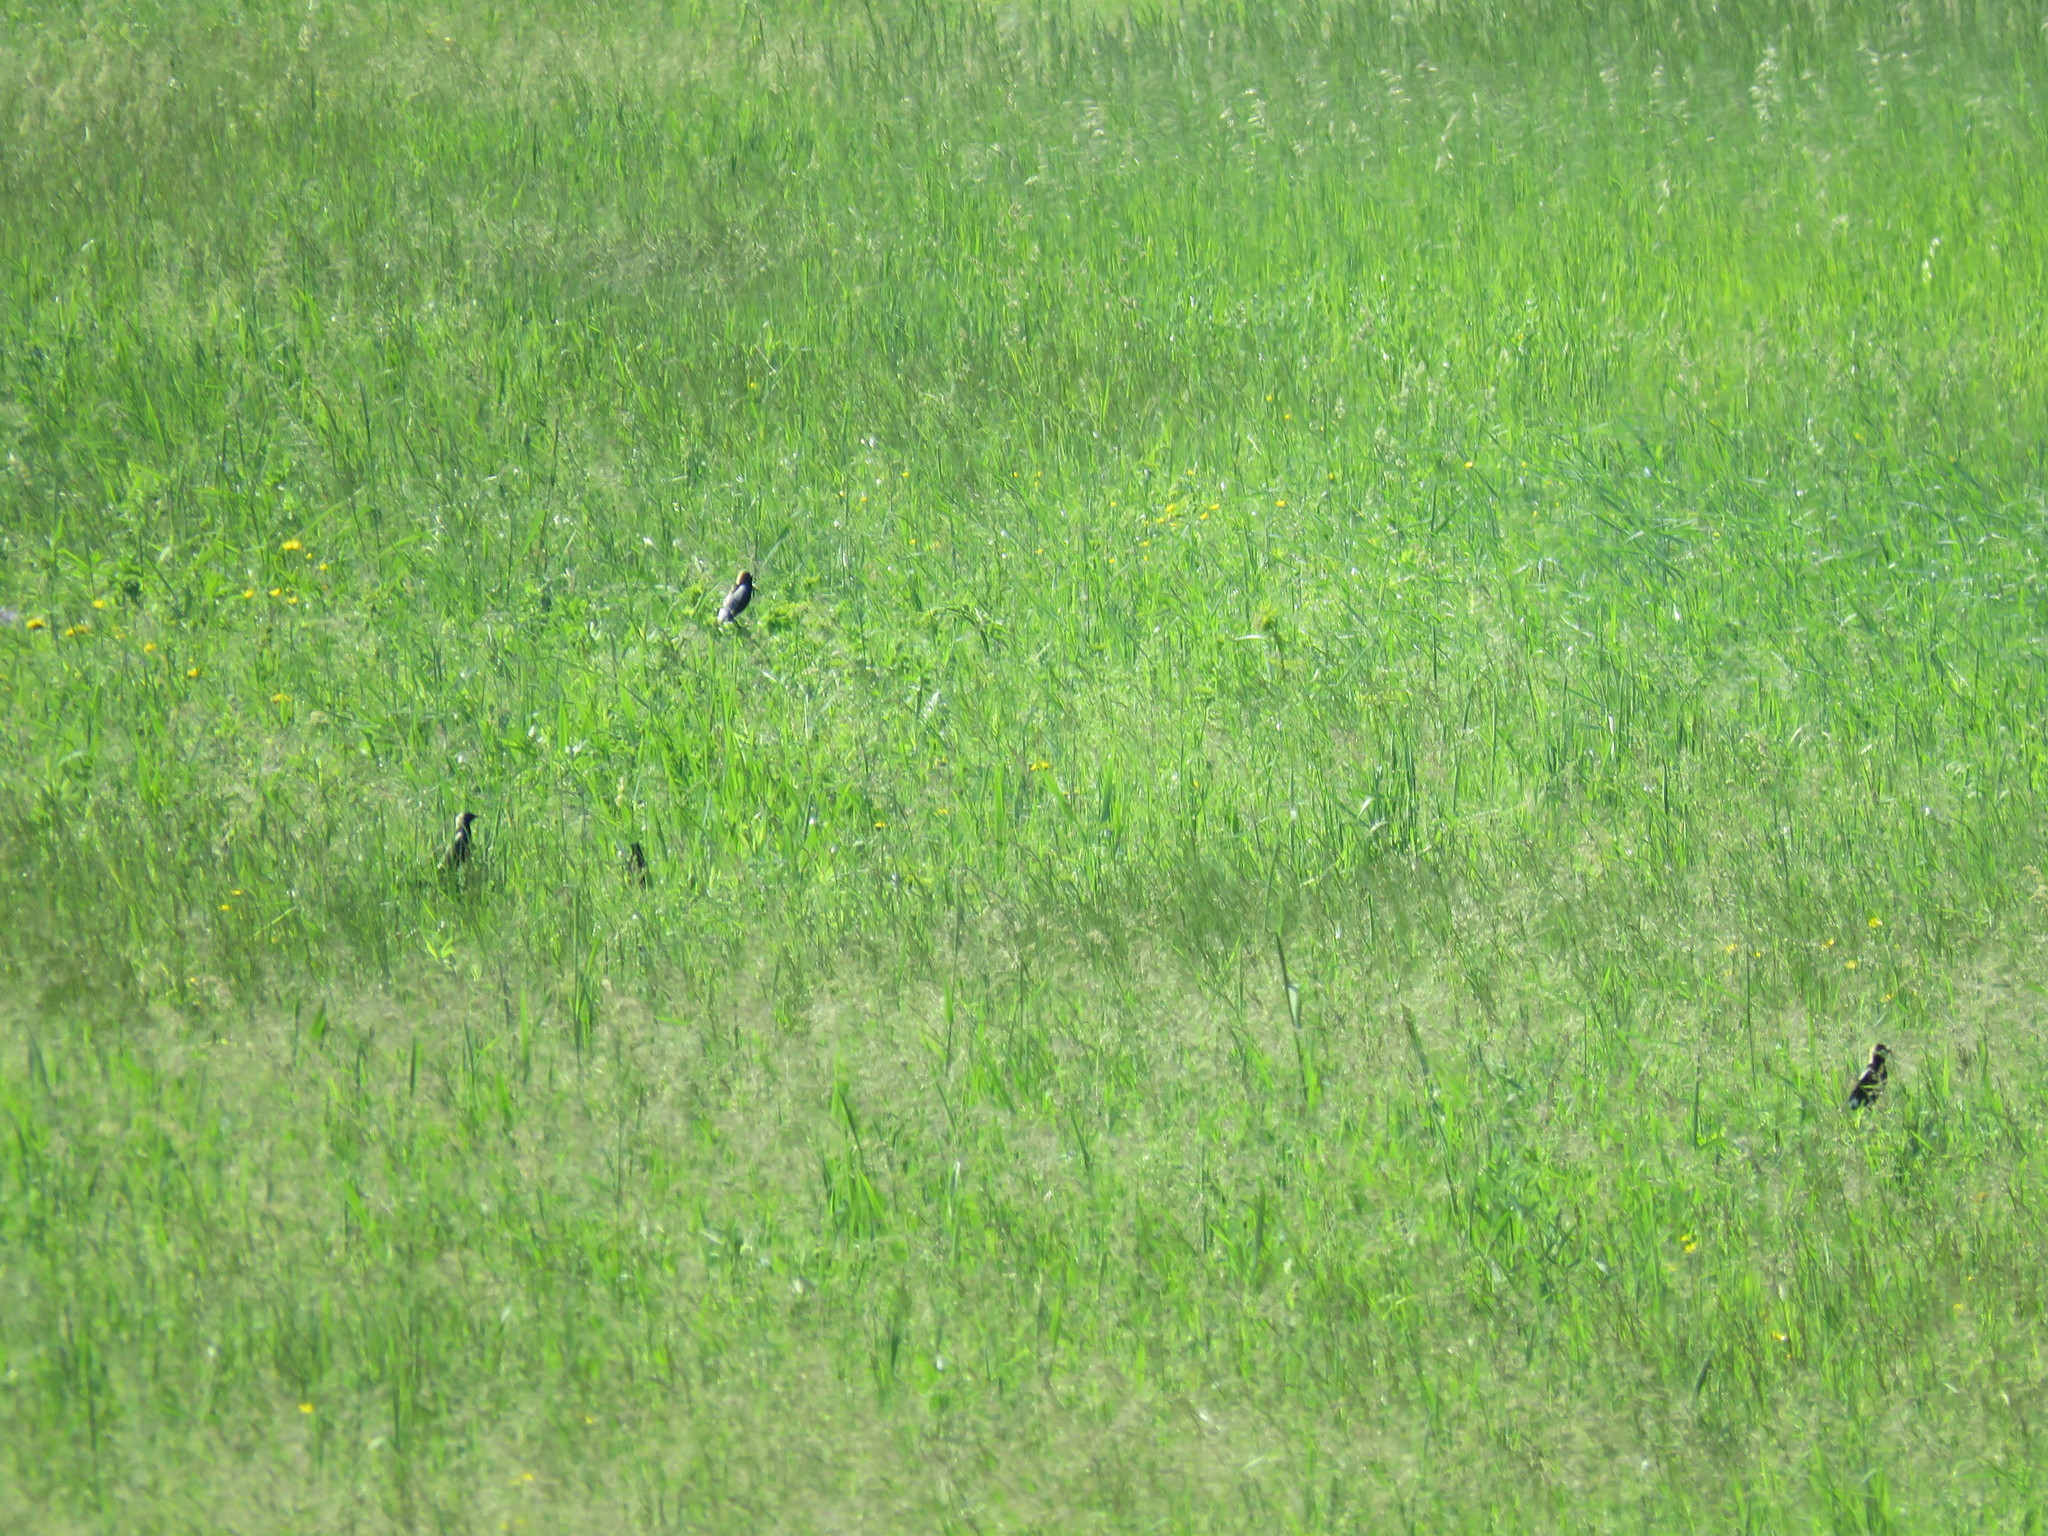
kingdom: Animalia
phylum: Chordata
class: Aves
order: Passeriformes
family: Icteridae
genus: Dolichonyx
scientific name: Dolichonyx oryzivorus
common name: Bobolink
